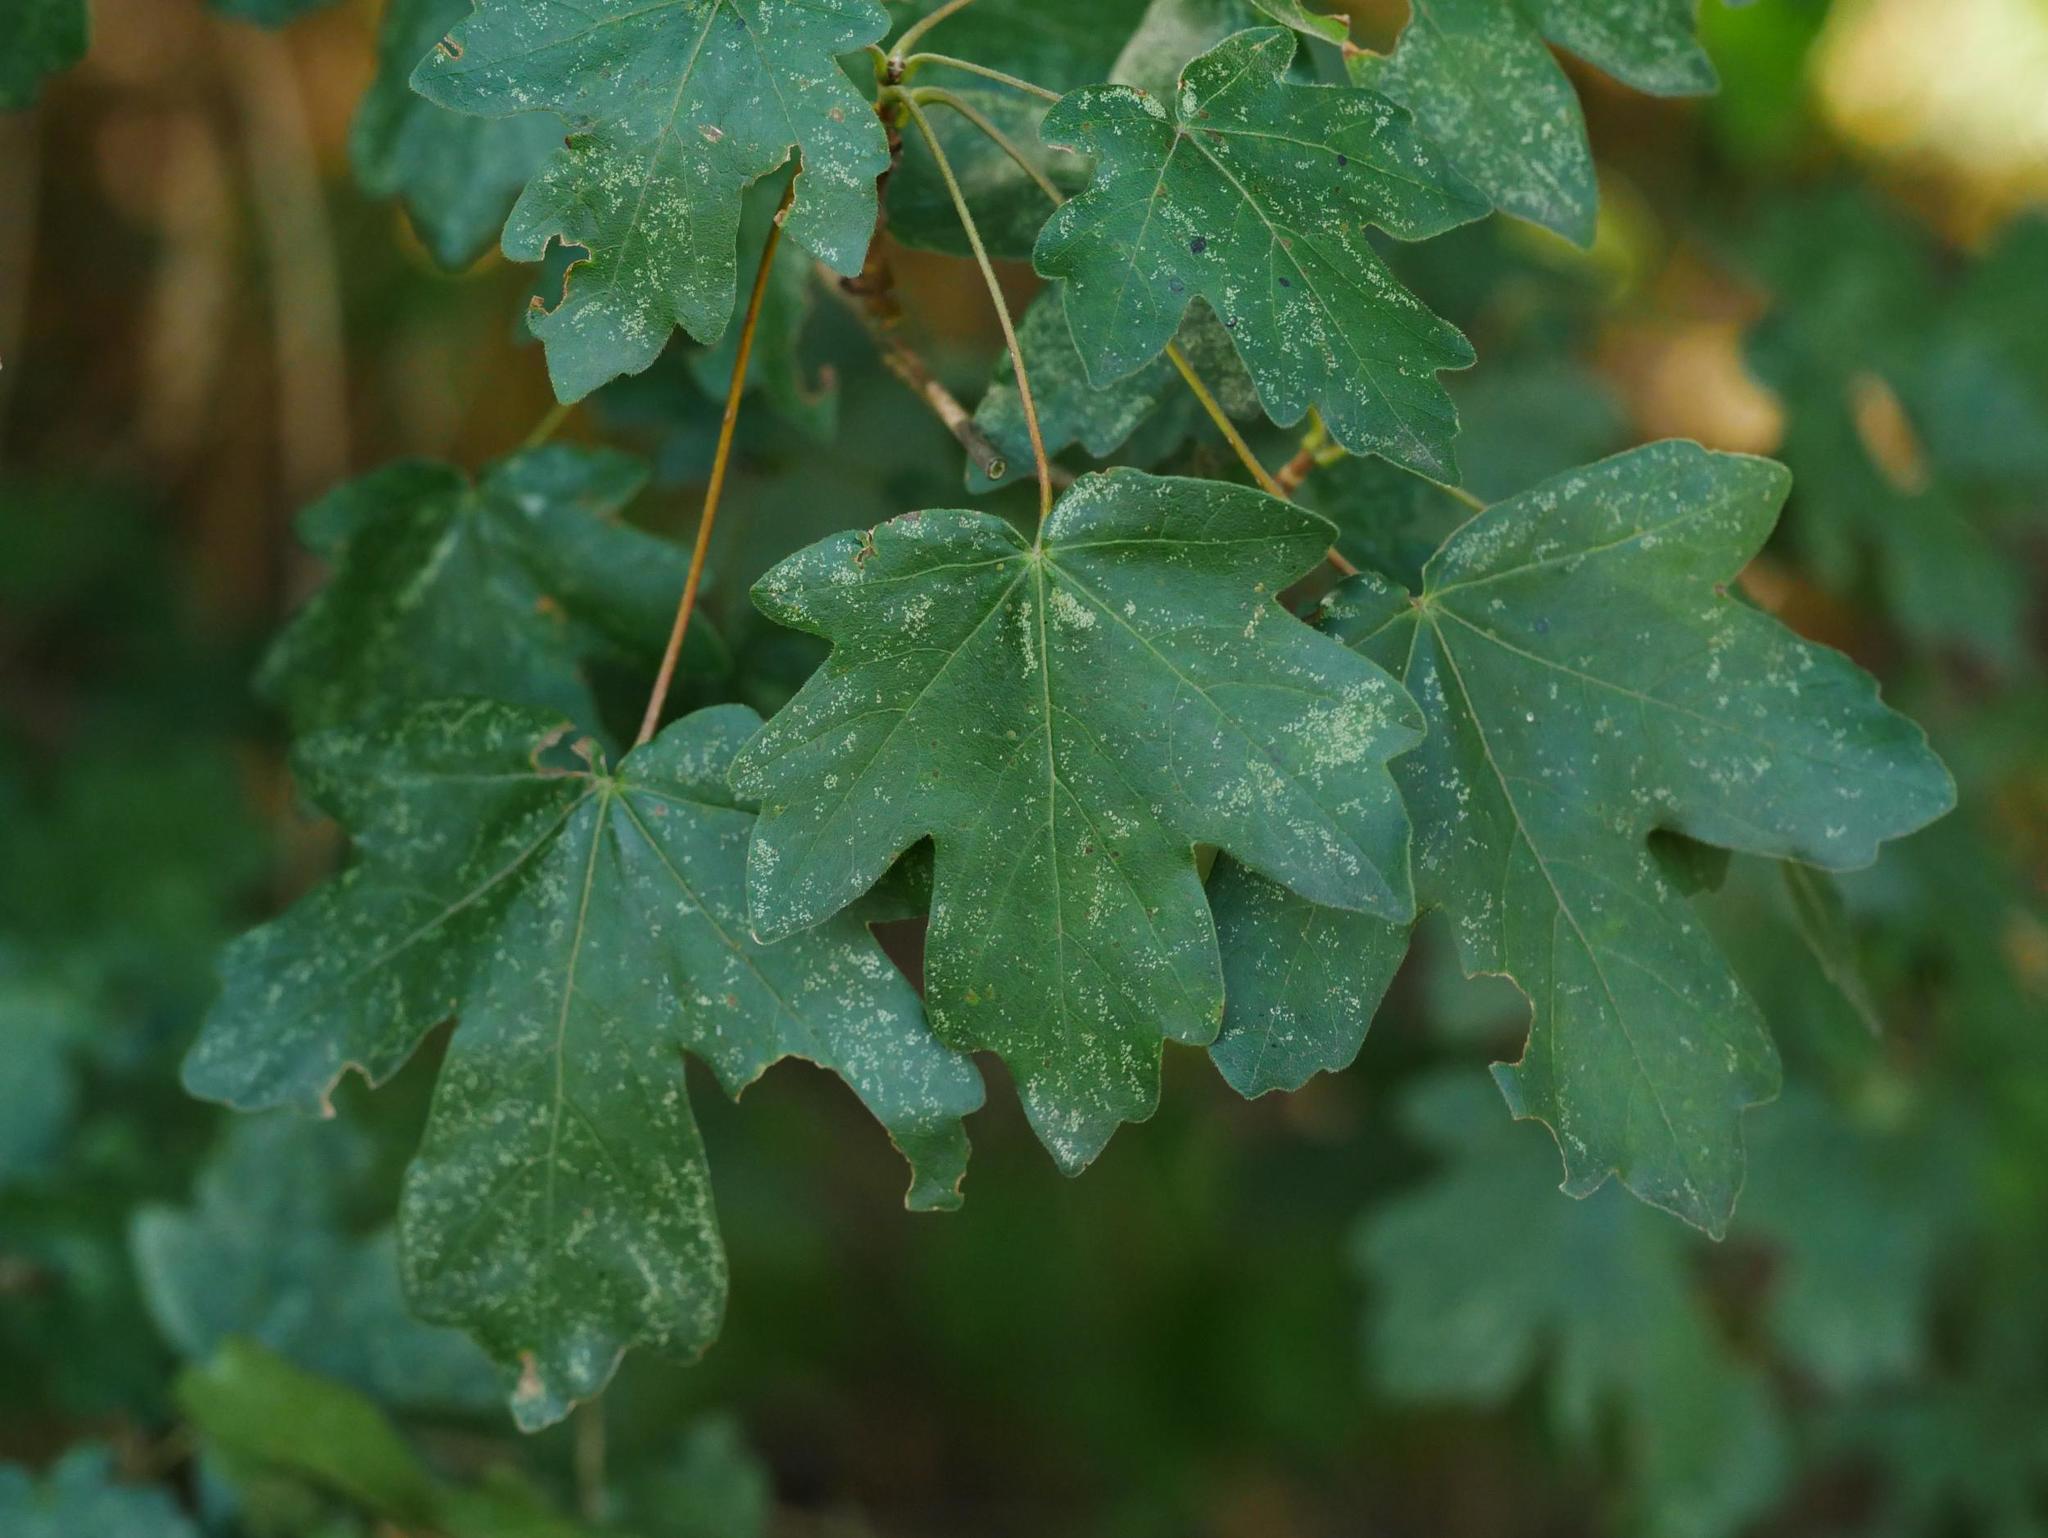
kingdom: Plantae
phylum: Tracheophyta
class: Magnoliopsida
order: Sapindales
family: Sapindaceae
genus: Acer
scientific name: Acer campestre
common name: Field maple
